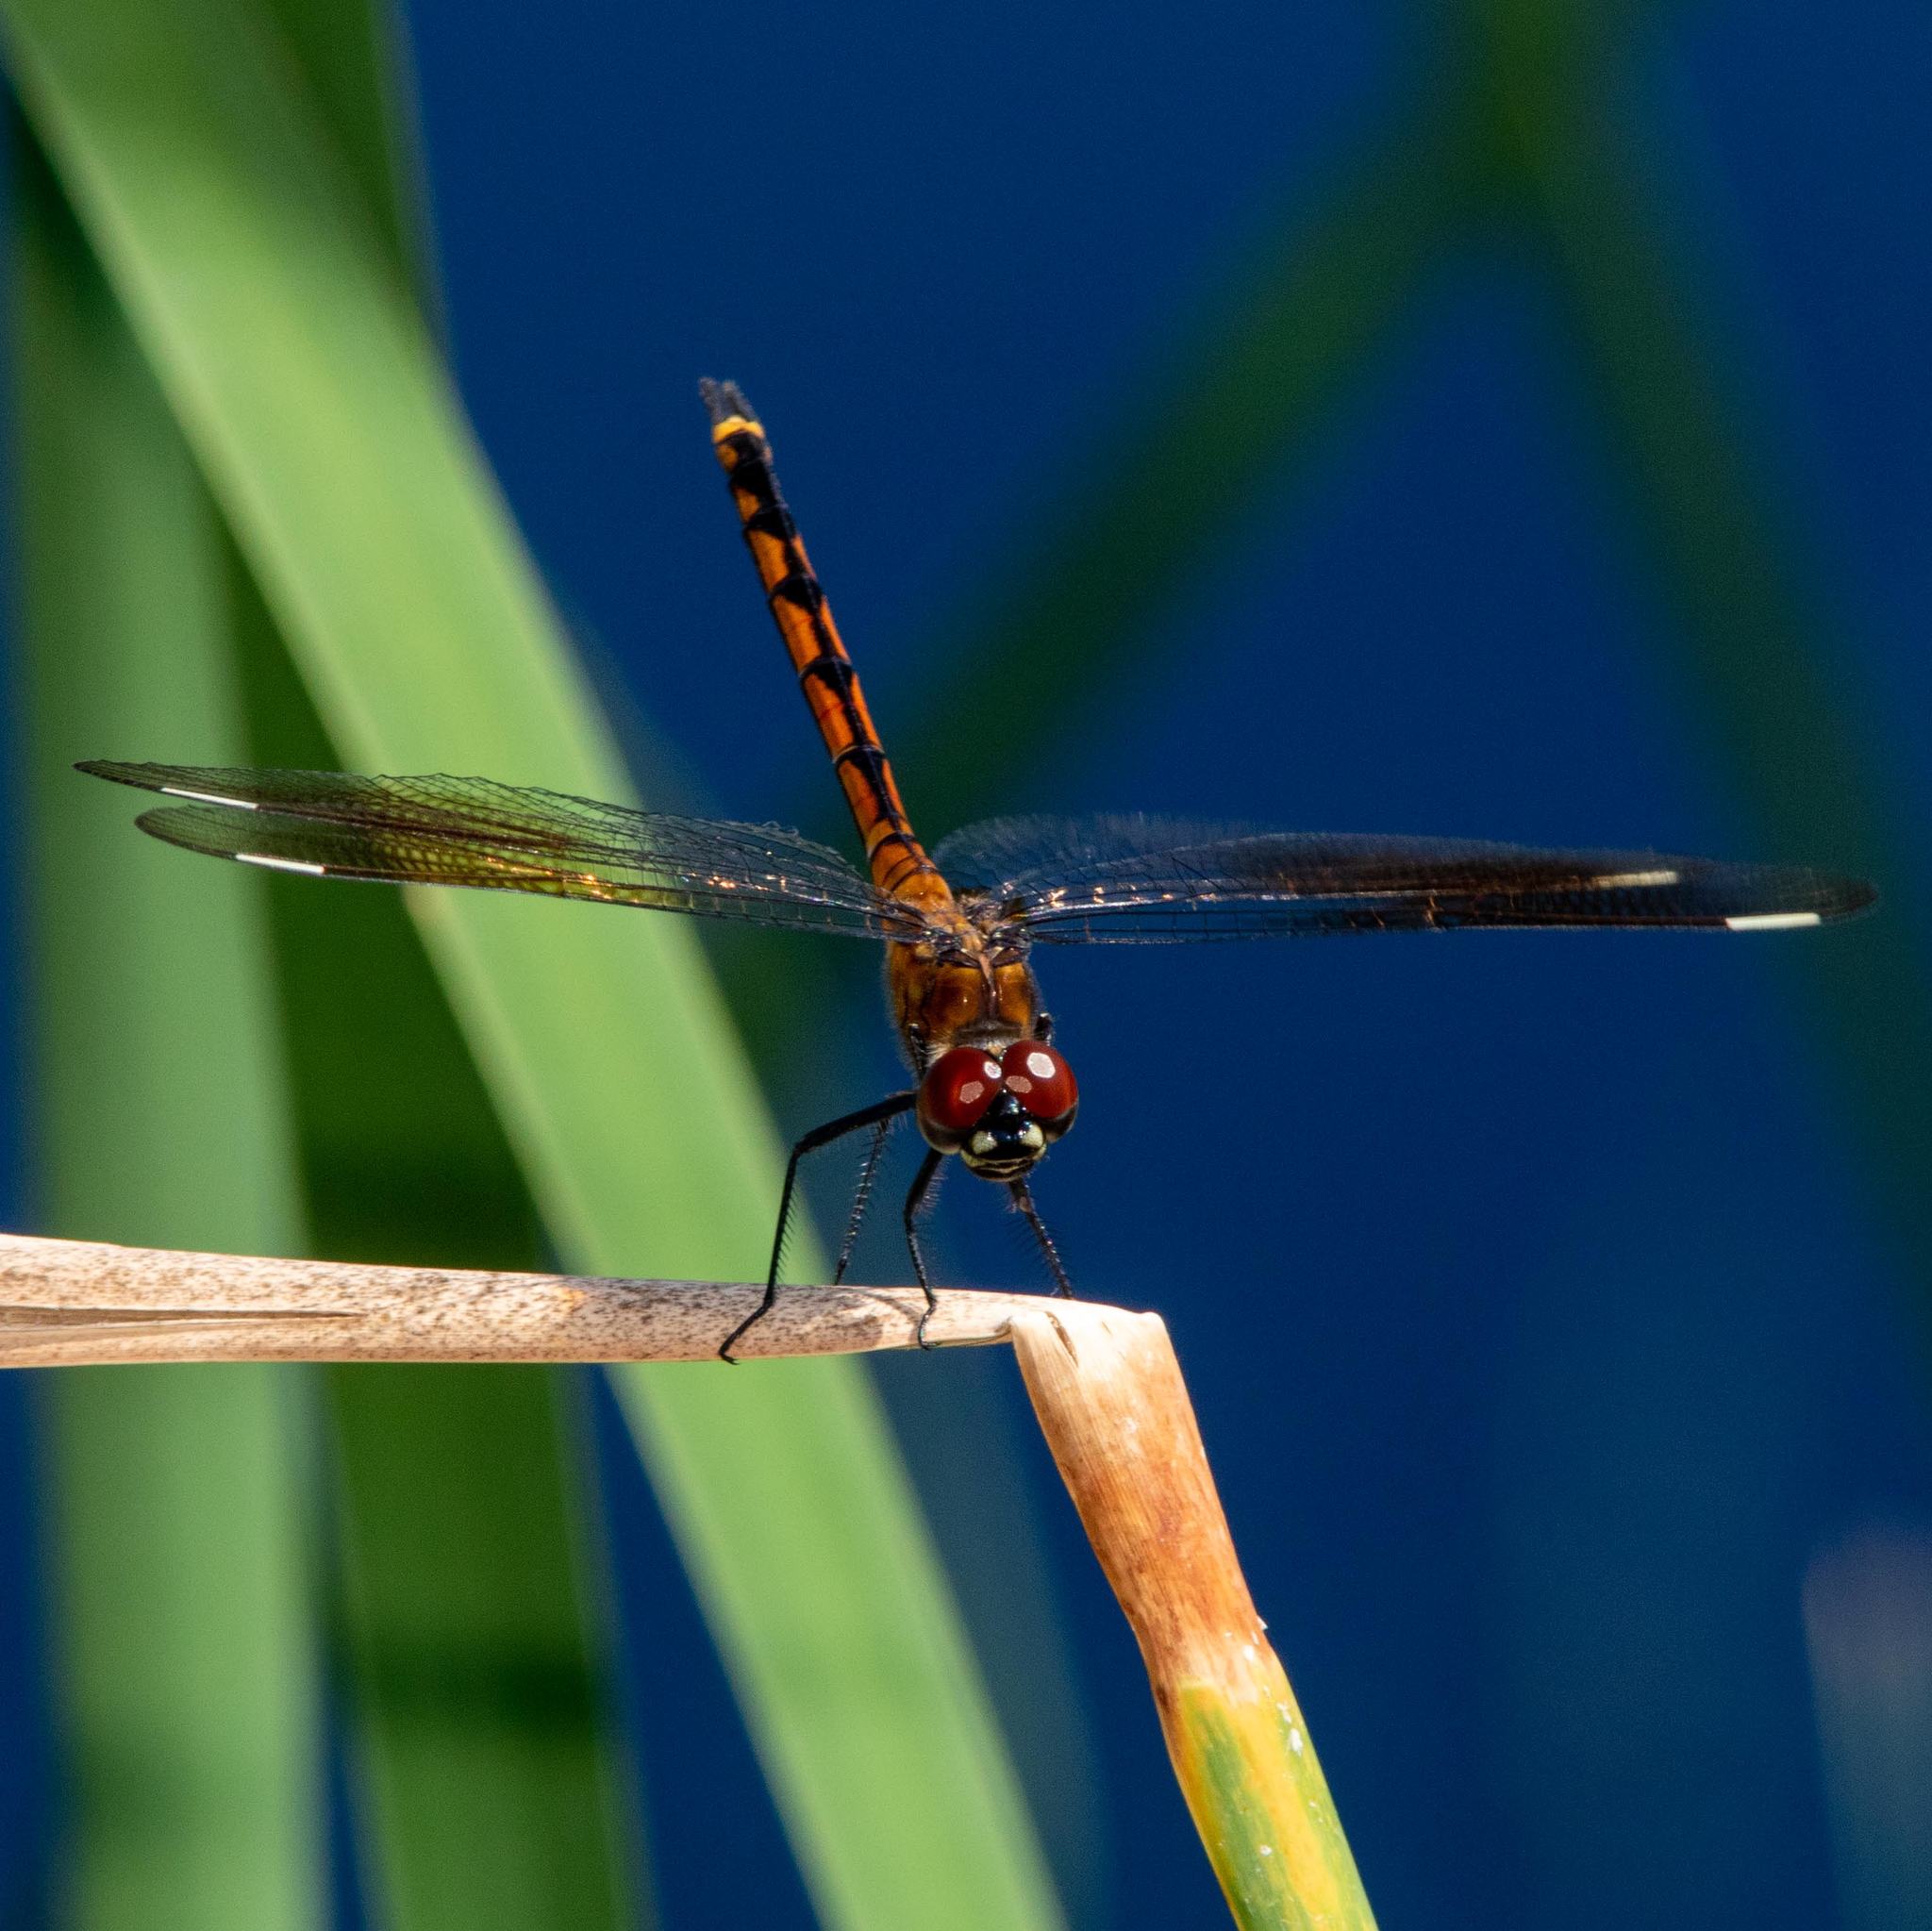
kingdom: Animalia
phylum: Arthropoda
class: Insecta
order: Odonata
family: Libellulidae
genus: Brachymesia
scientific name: Brachymesia gravida
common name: Four-spotted pennant
